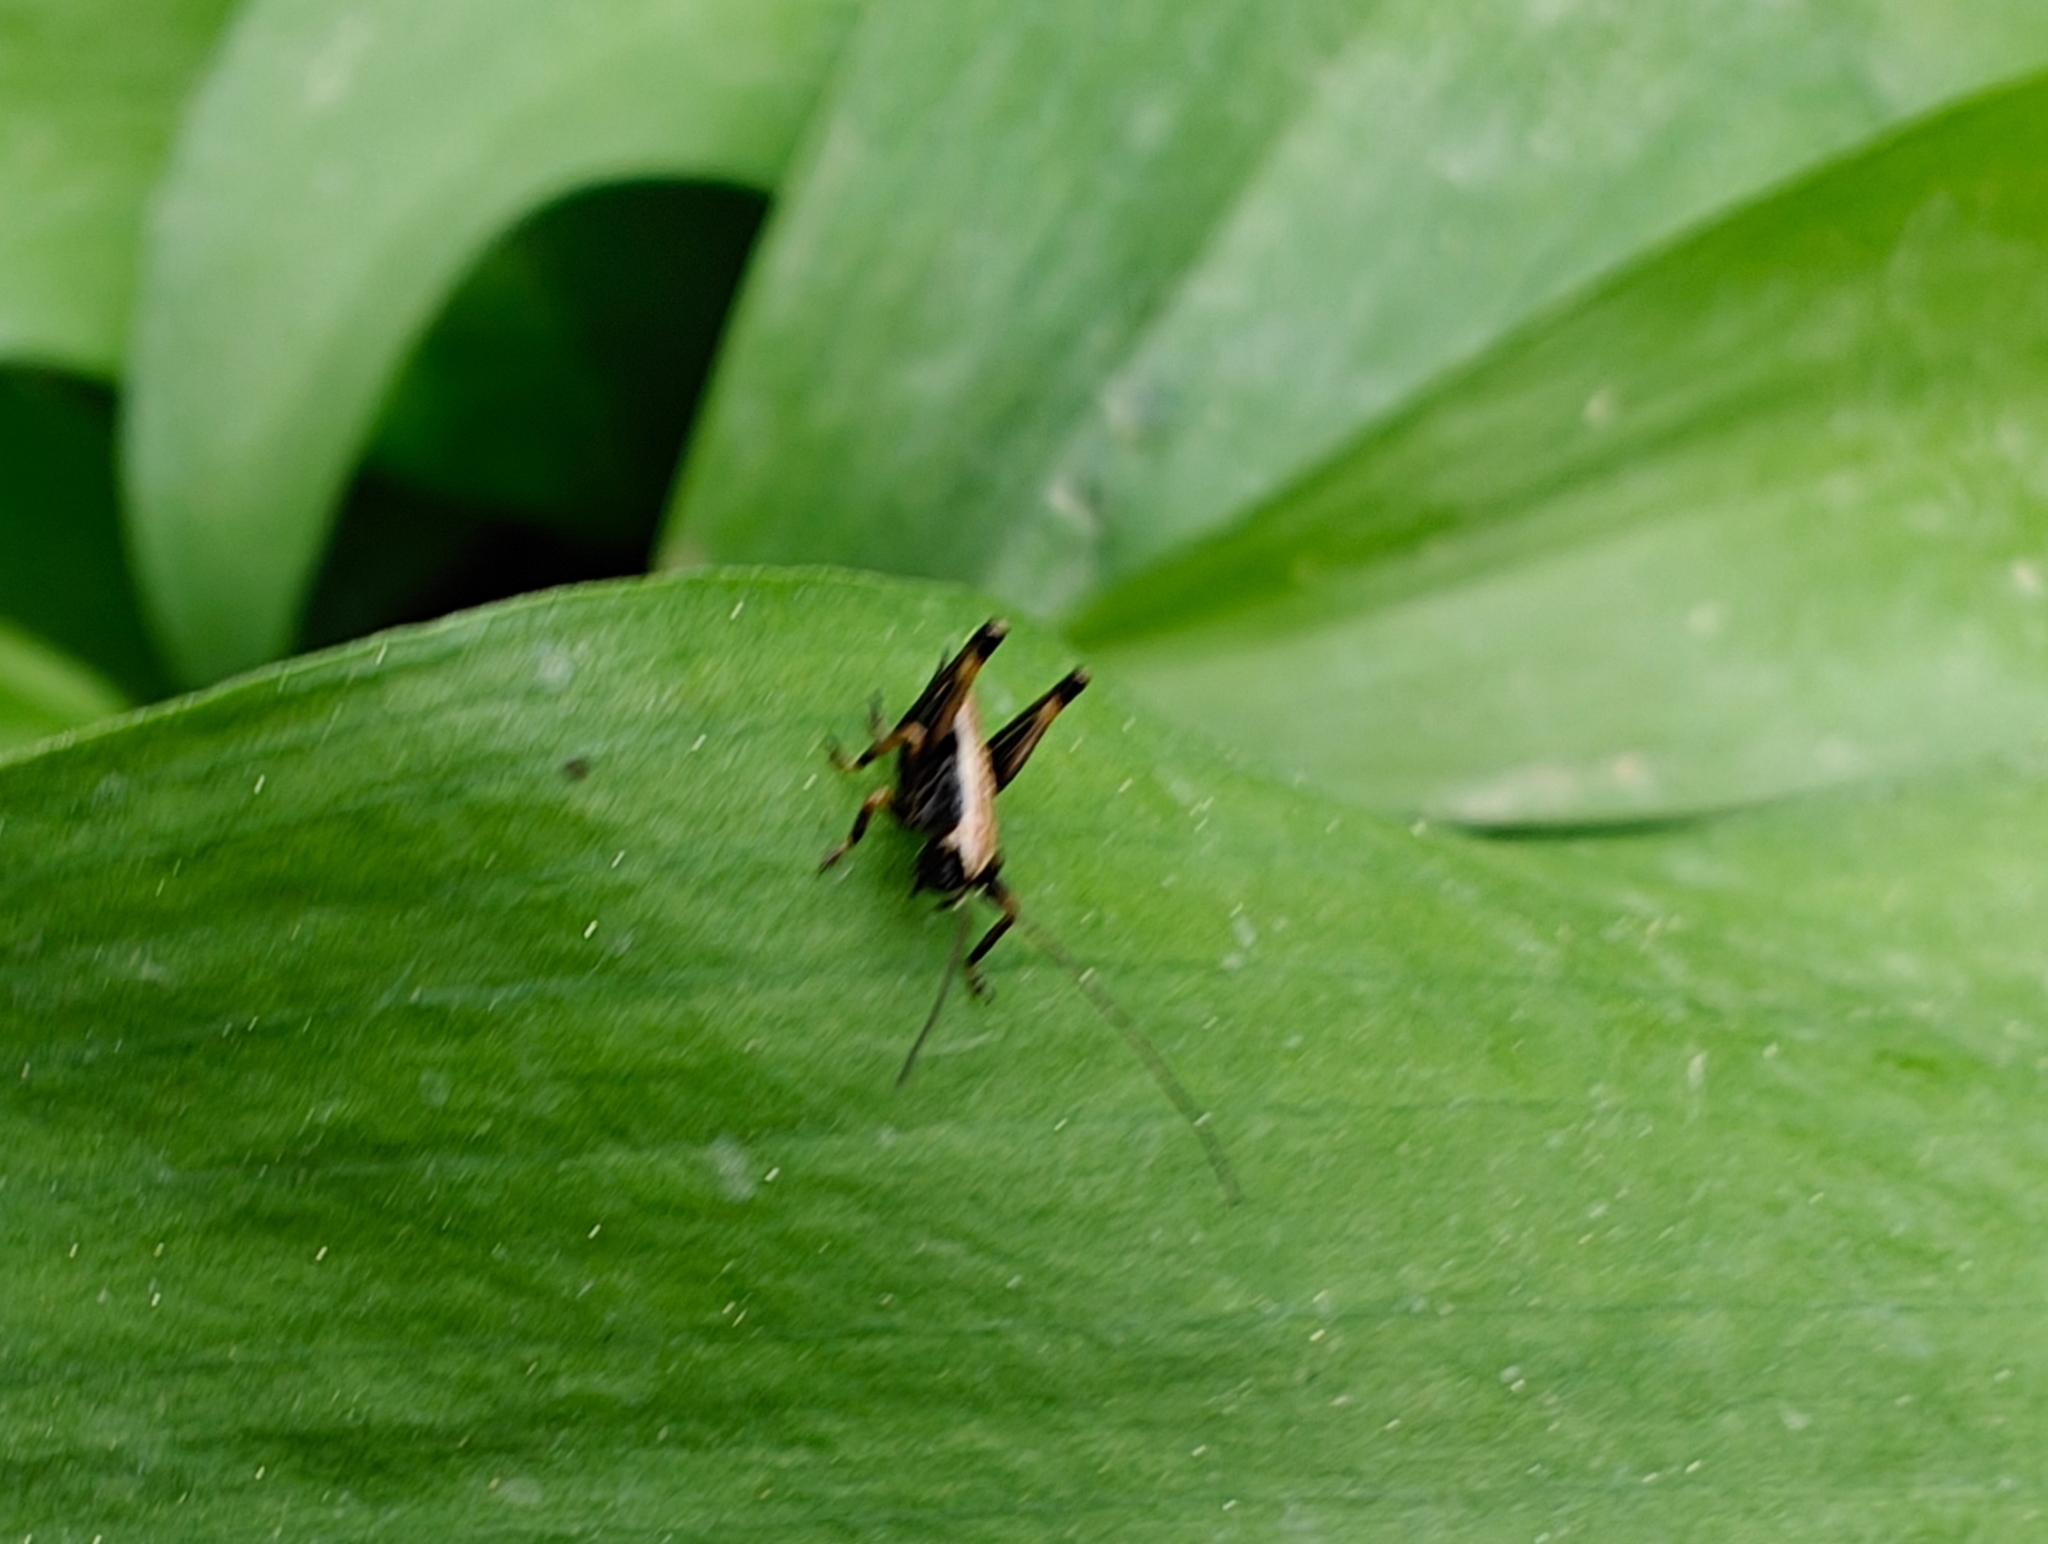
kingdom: Animalia
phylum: Arthropoda
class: Insecta
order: Orthoptera
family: Tettigoniidae
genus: Pholidoptera
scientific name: Pholidoptera griseoaptera
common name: Dark bush-cricket
